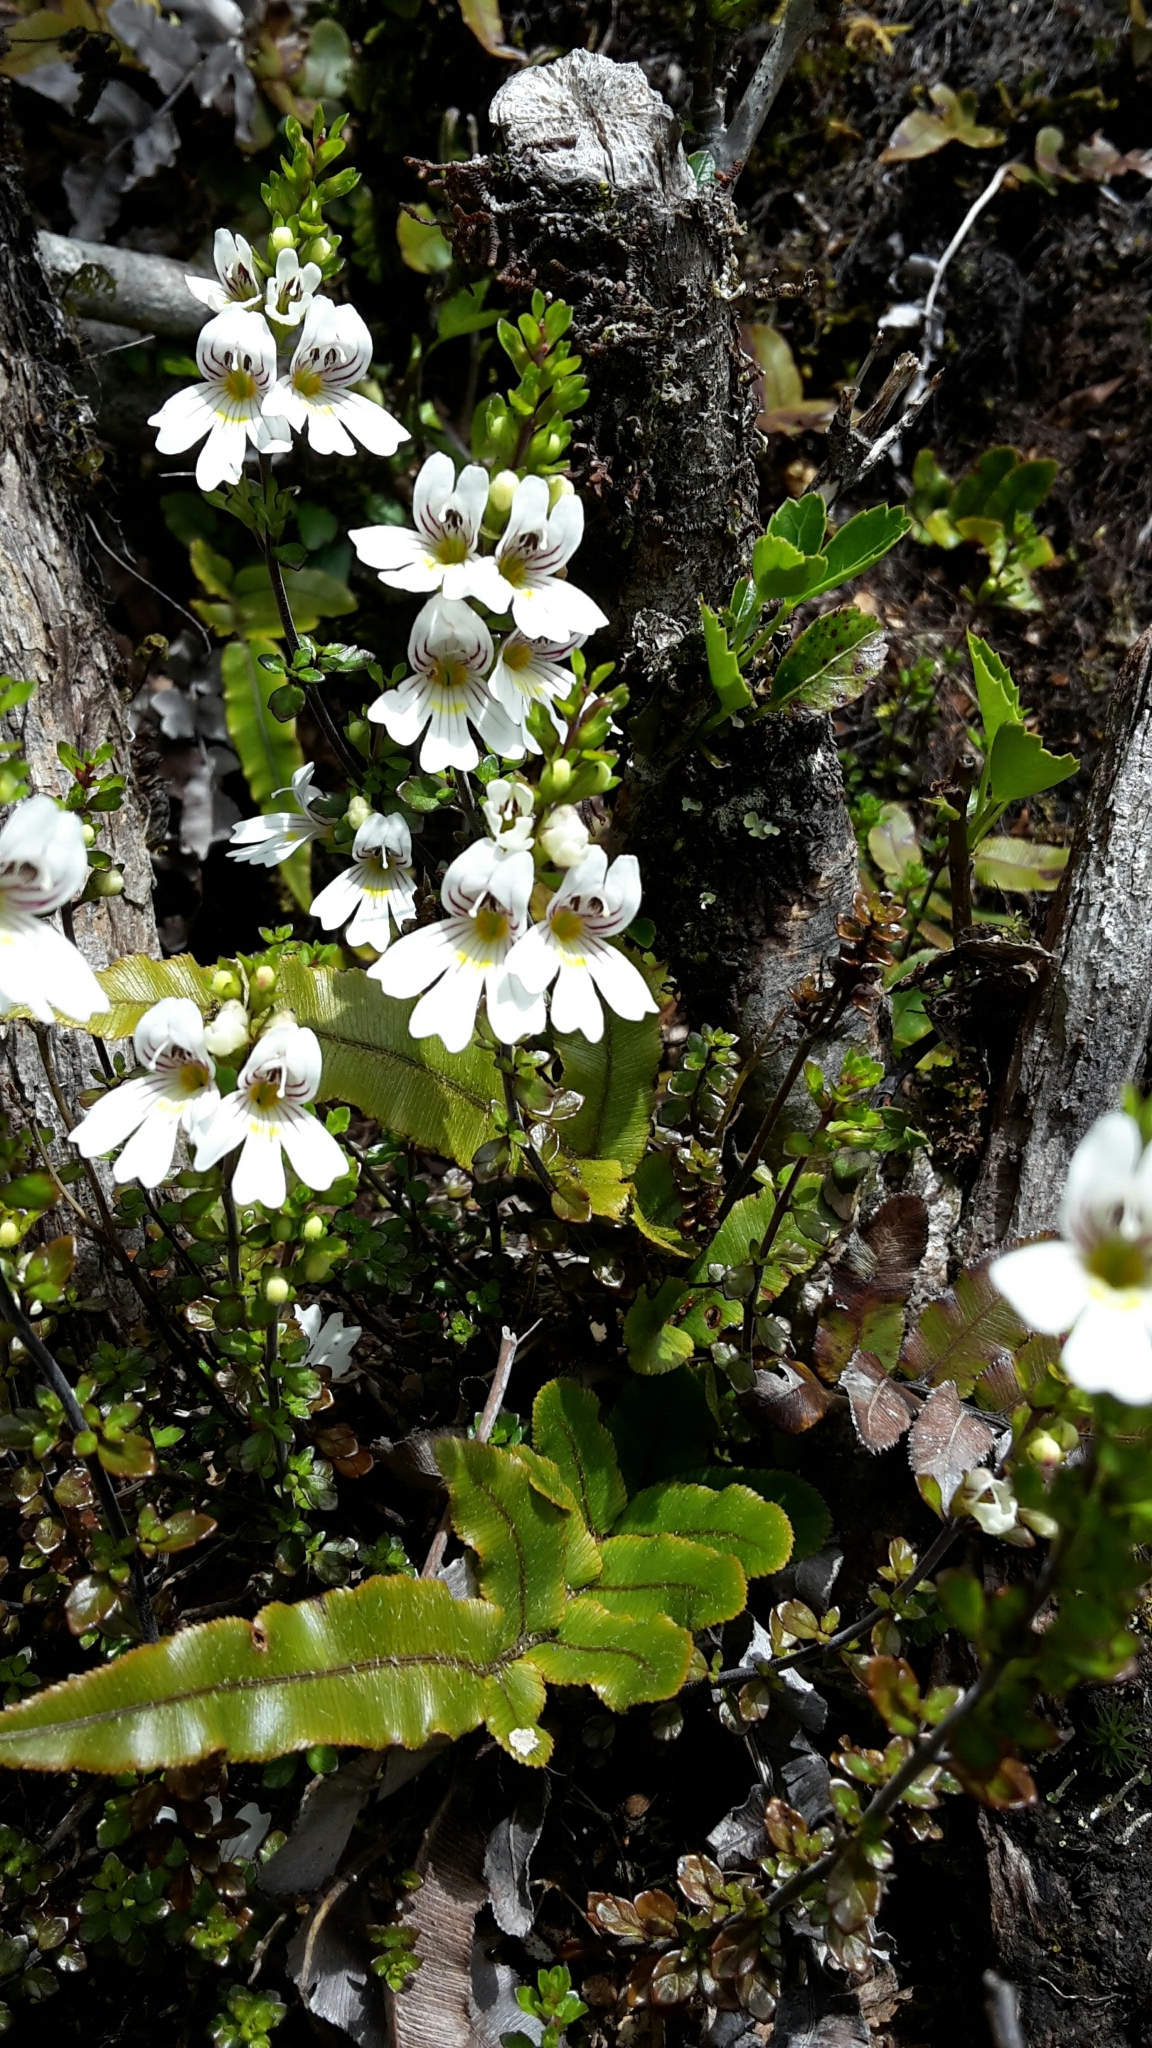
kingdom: Plantae
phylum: Tracheophyta
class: Magnoliopsida
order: Lamiales
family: Orobanchaceae
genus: Euphrasia
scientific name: Euphrasia cuneata
